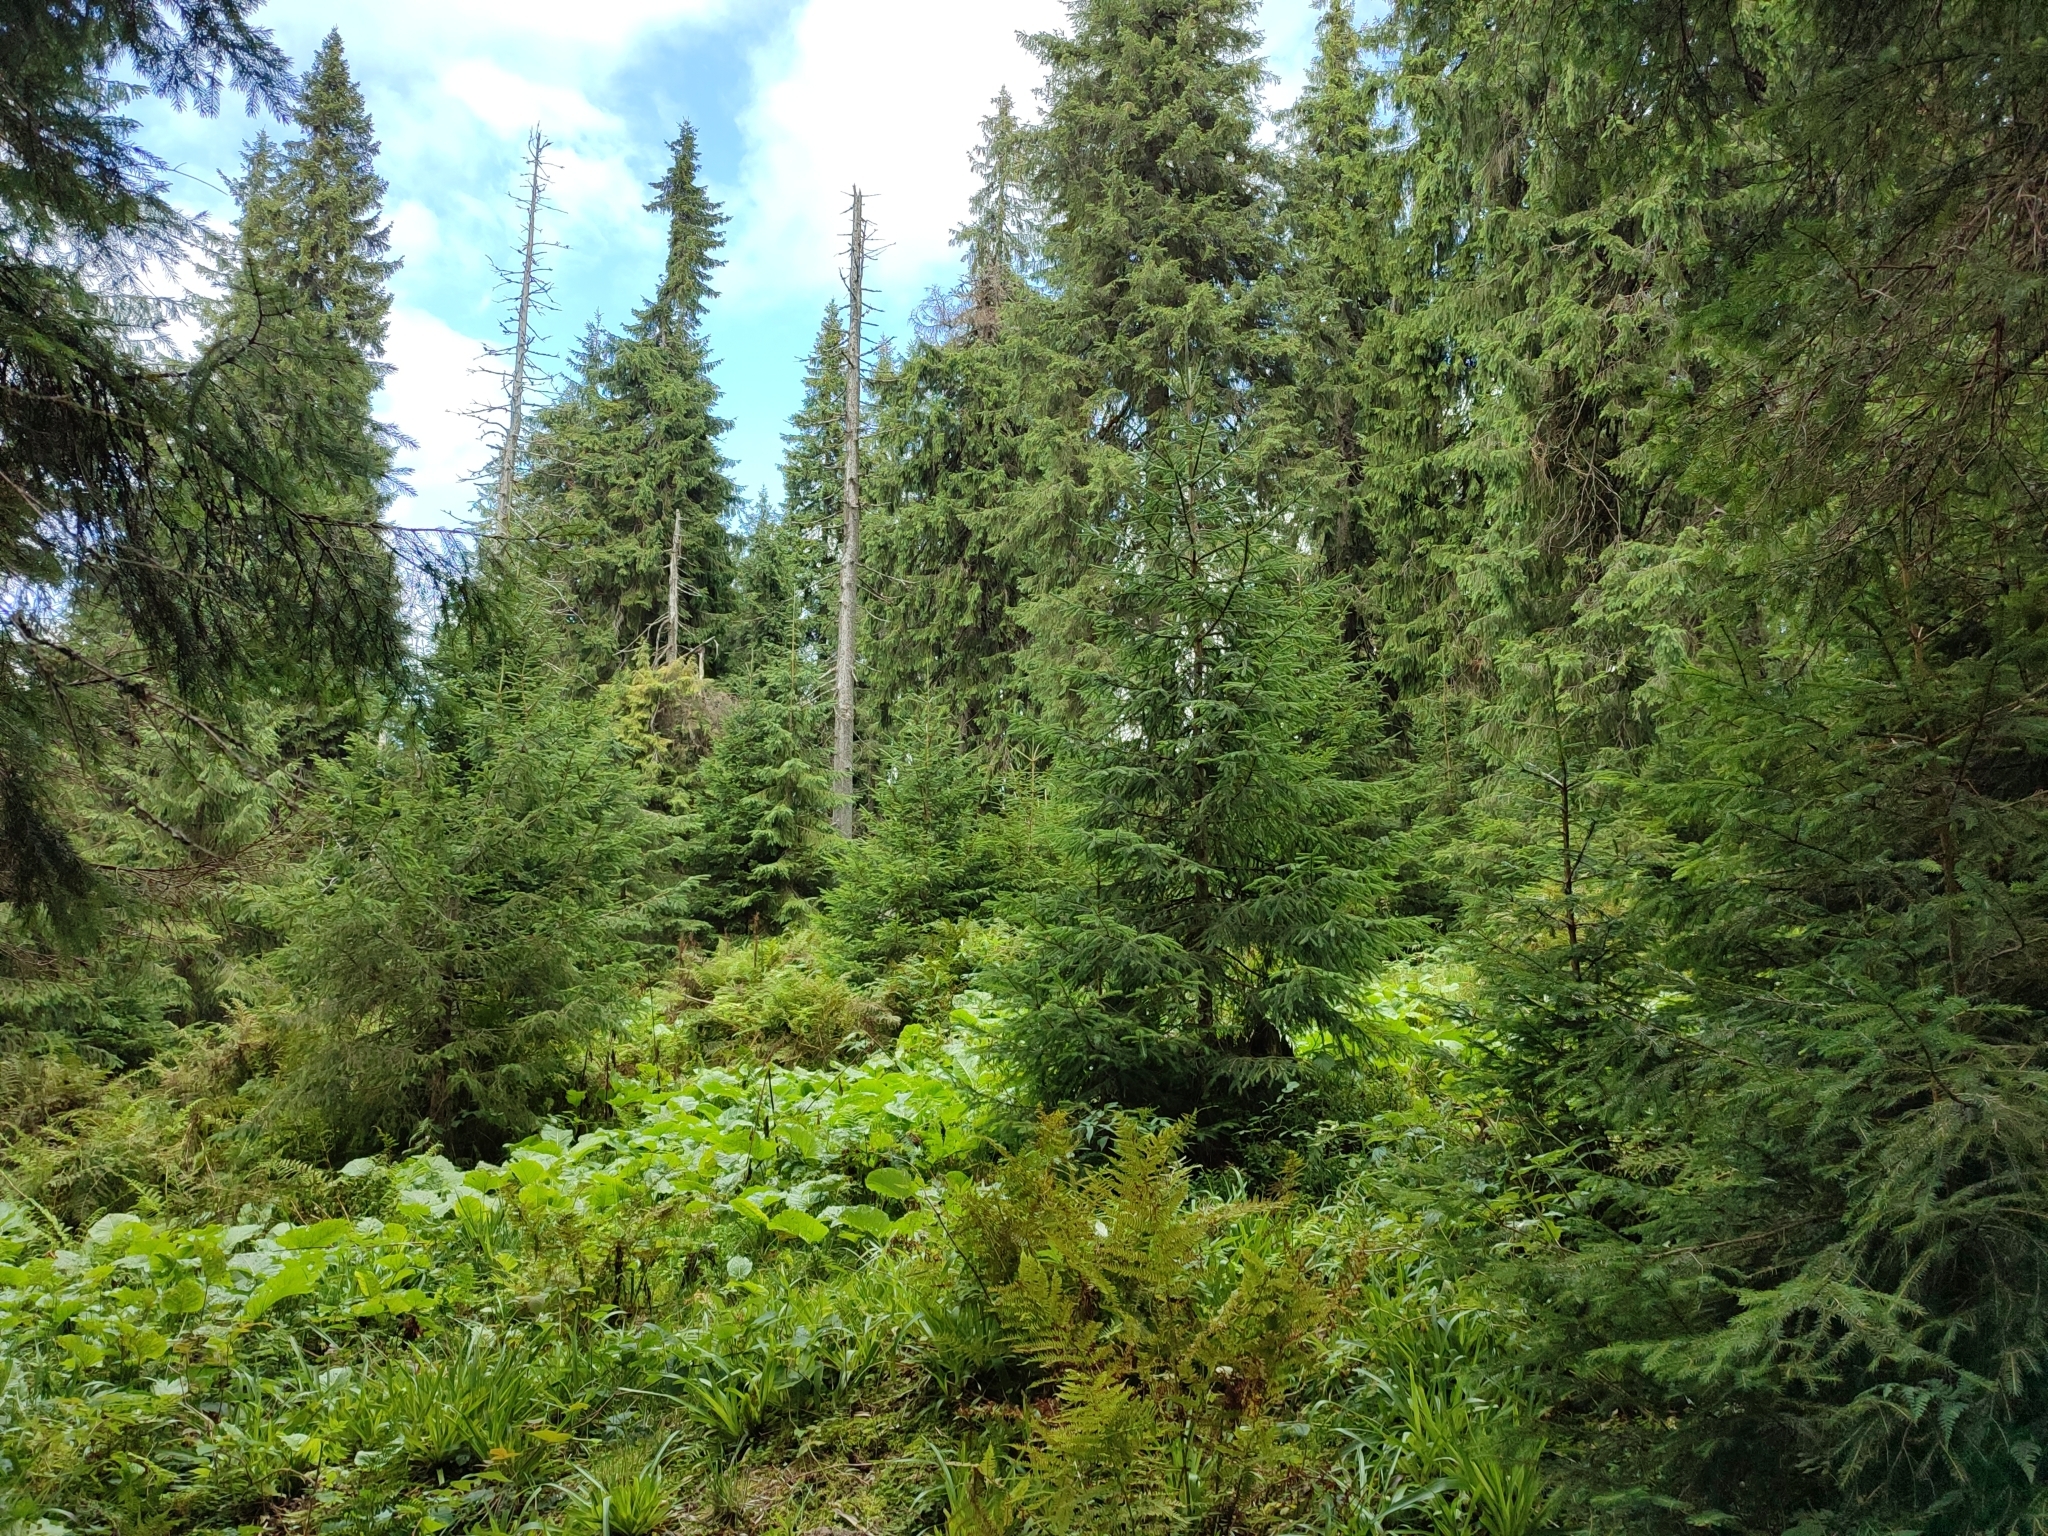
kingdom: Plantae
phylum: Tracheophyta
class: Pinopsida
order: Pinales
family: Pinaceae
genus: Picea
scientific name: Picea abies
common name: Norway spruce
